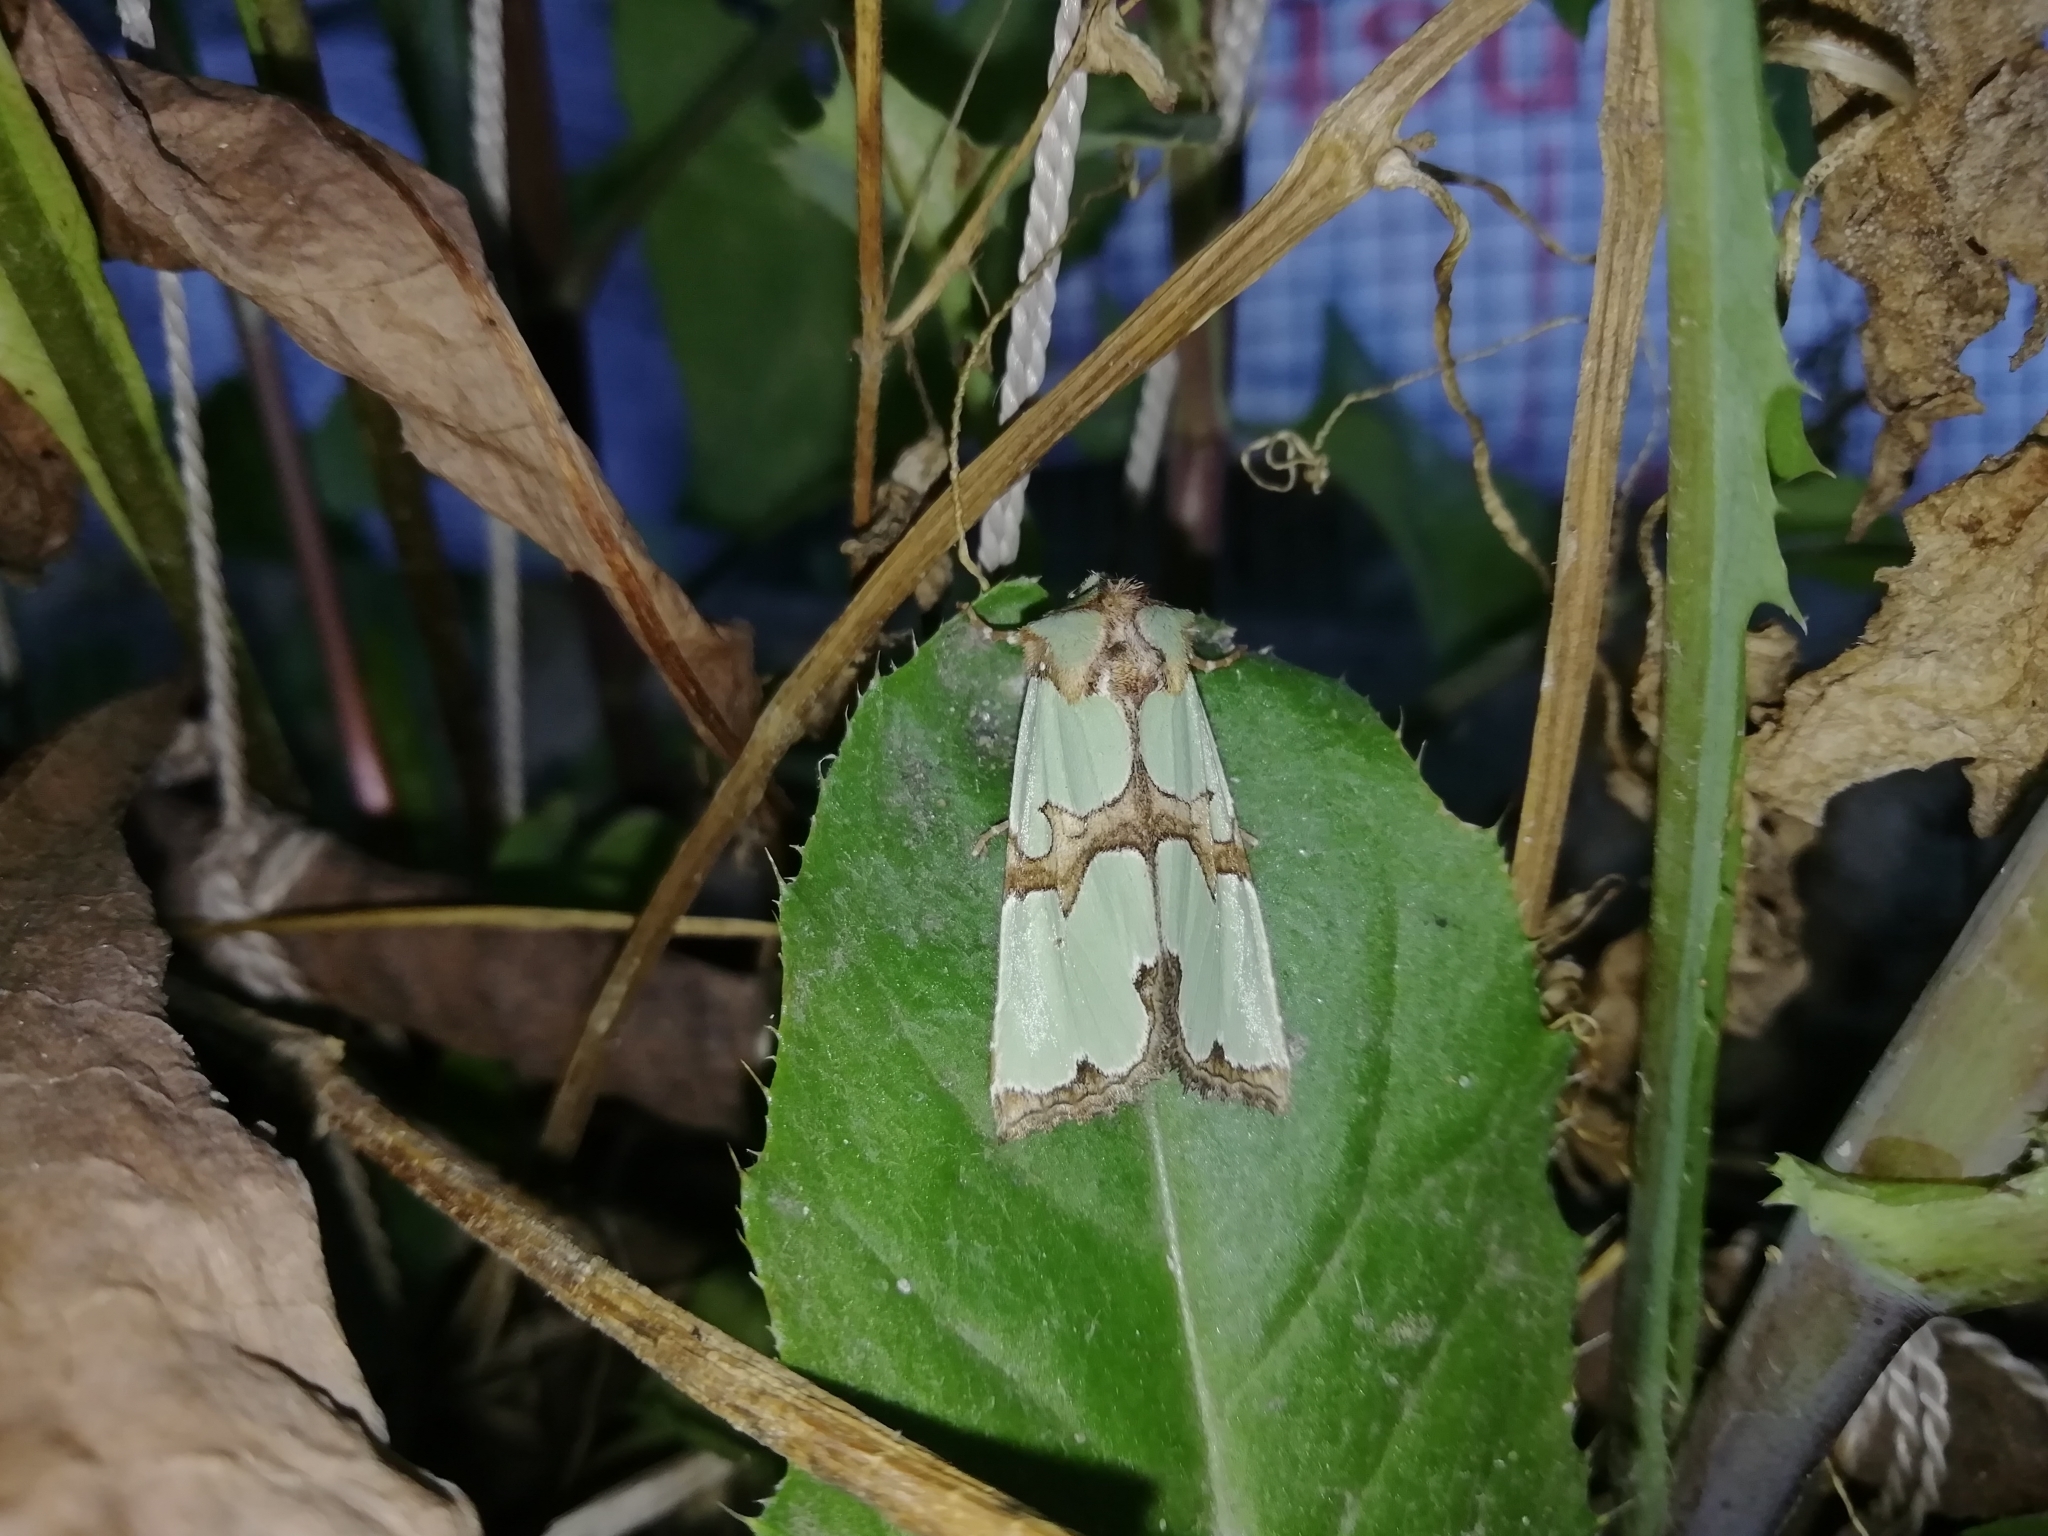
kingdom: Animalia
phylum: Arthropoda
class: Insecta
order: Lepidoptera
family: Noctuidae
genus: Staurophora
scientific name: Staurophora celsia
